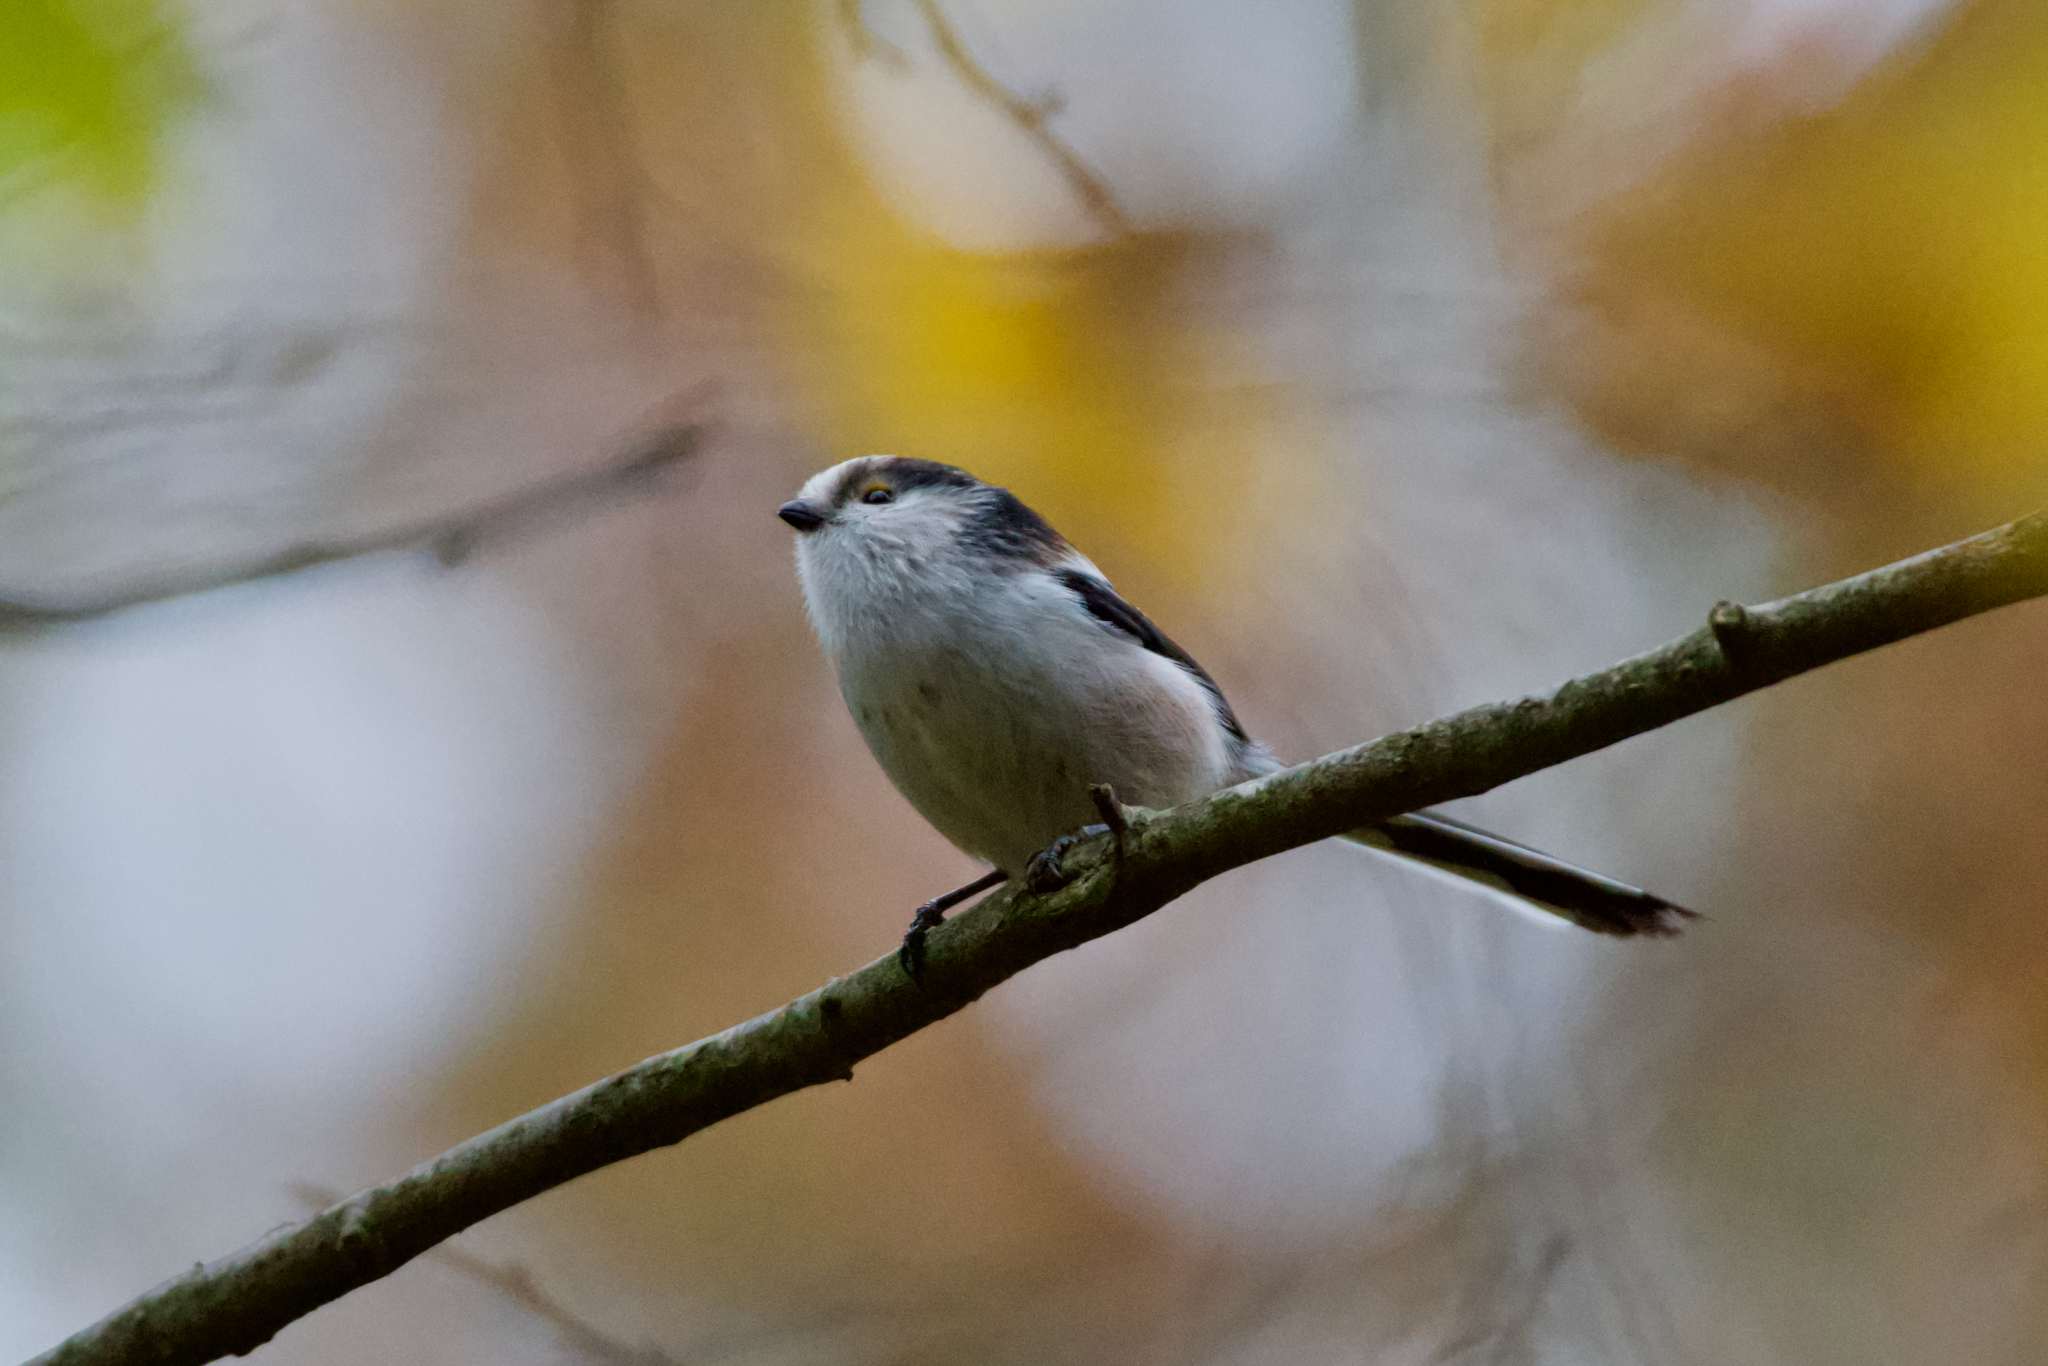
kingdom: Animalia
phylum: Chordata
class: Aves
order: Passeriformes
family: Aegithalidae
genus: Aegithalos
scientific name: Aegithalos caudatus
